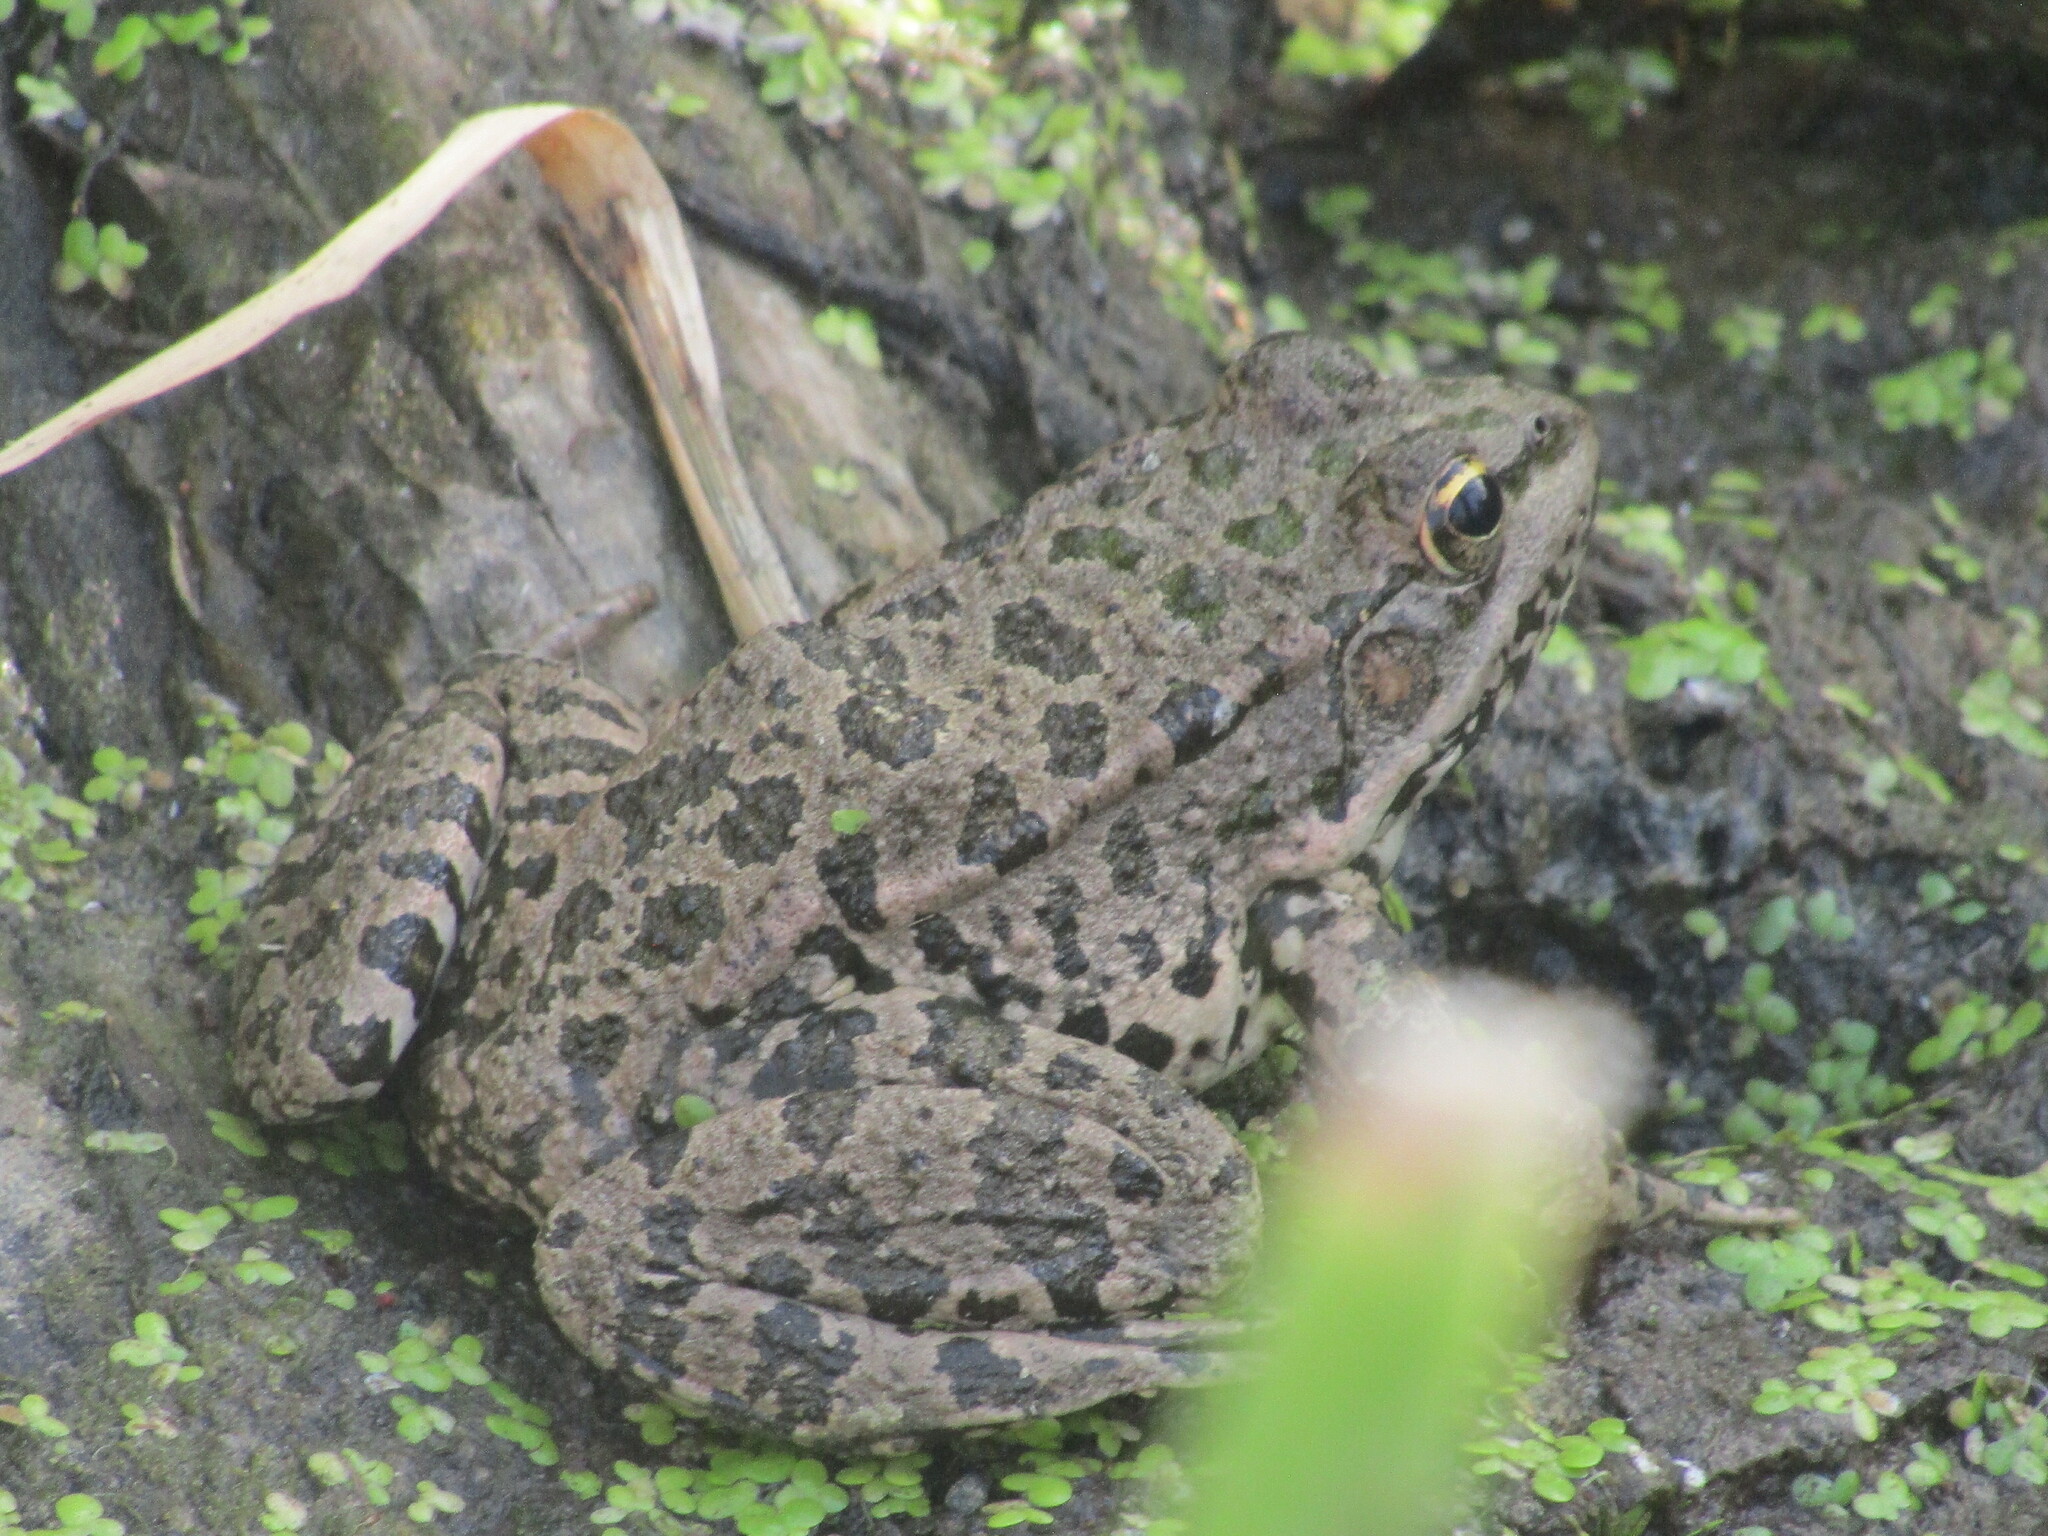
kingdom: Animalia
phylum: Chordata
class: Amphibia
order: Anura
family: Ranidae
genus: Pelophylax
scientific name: Pelophylax ridibundus
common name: Marsh frog
